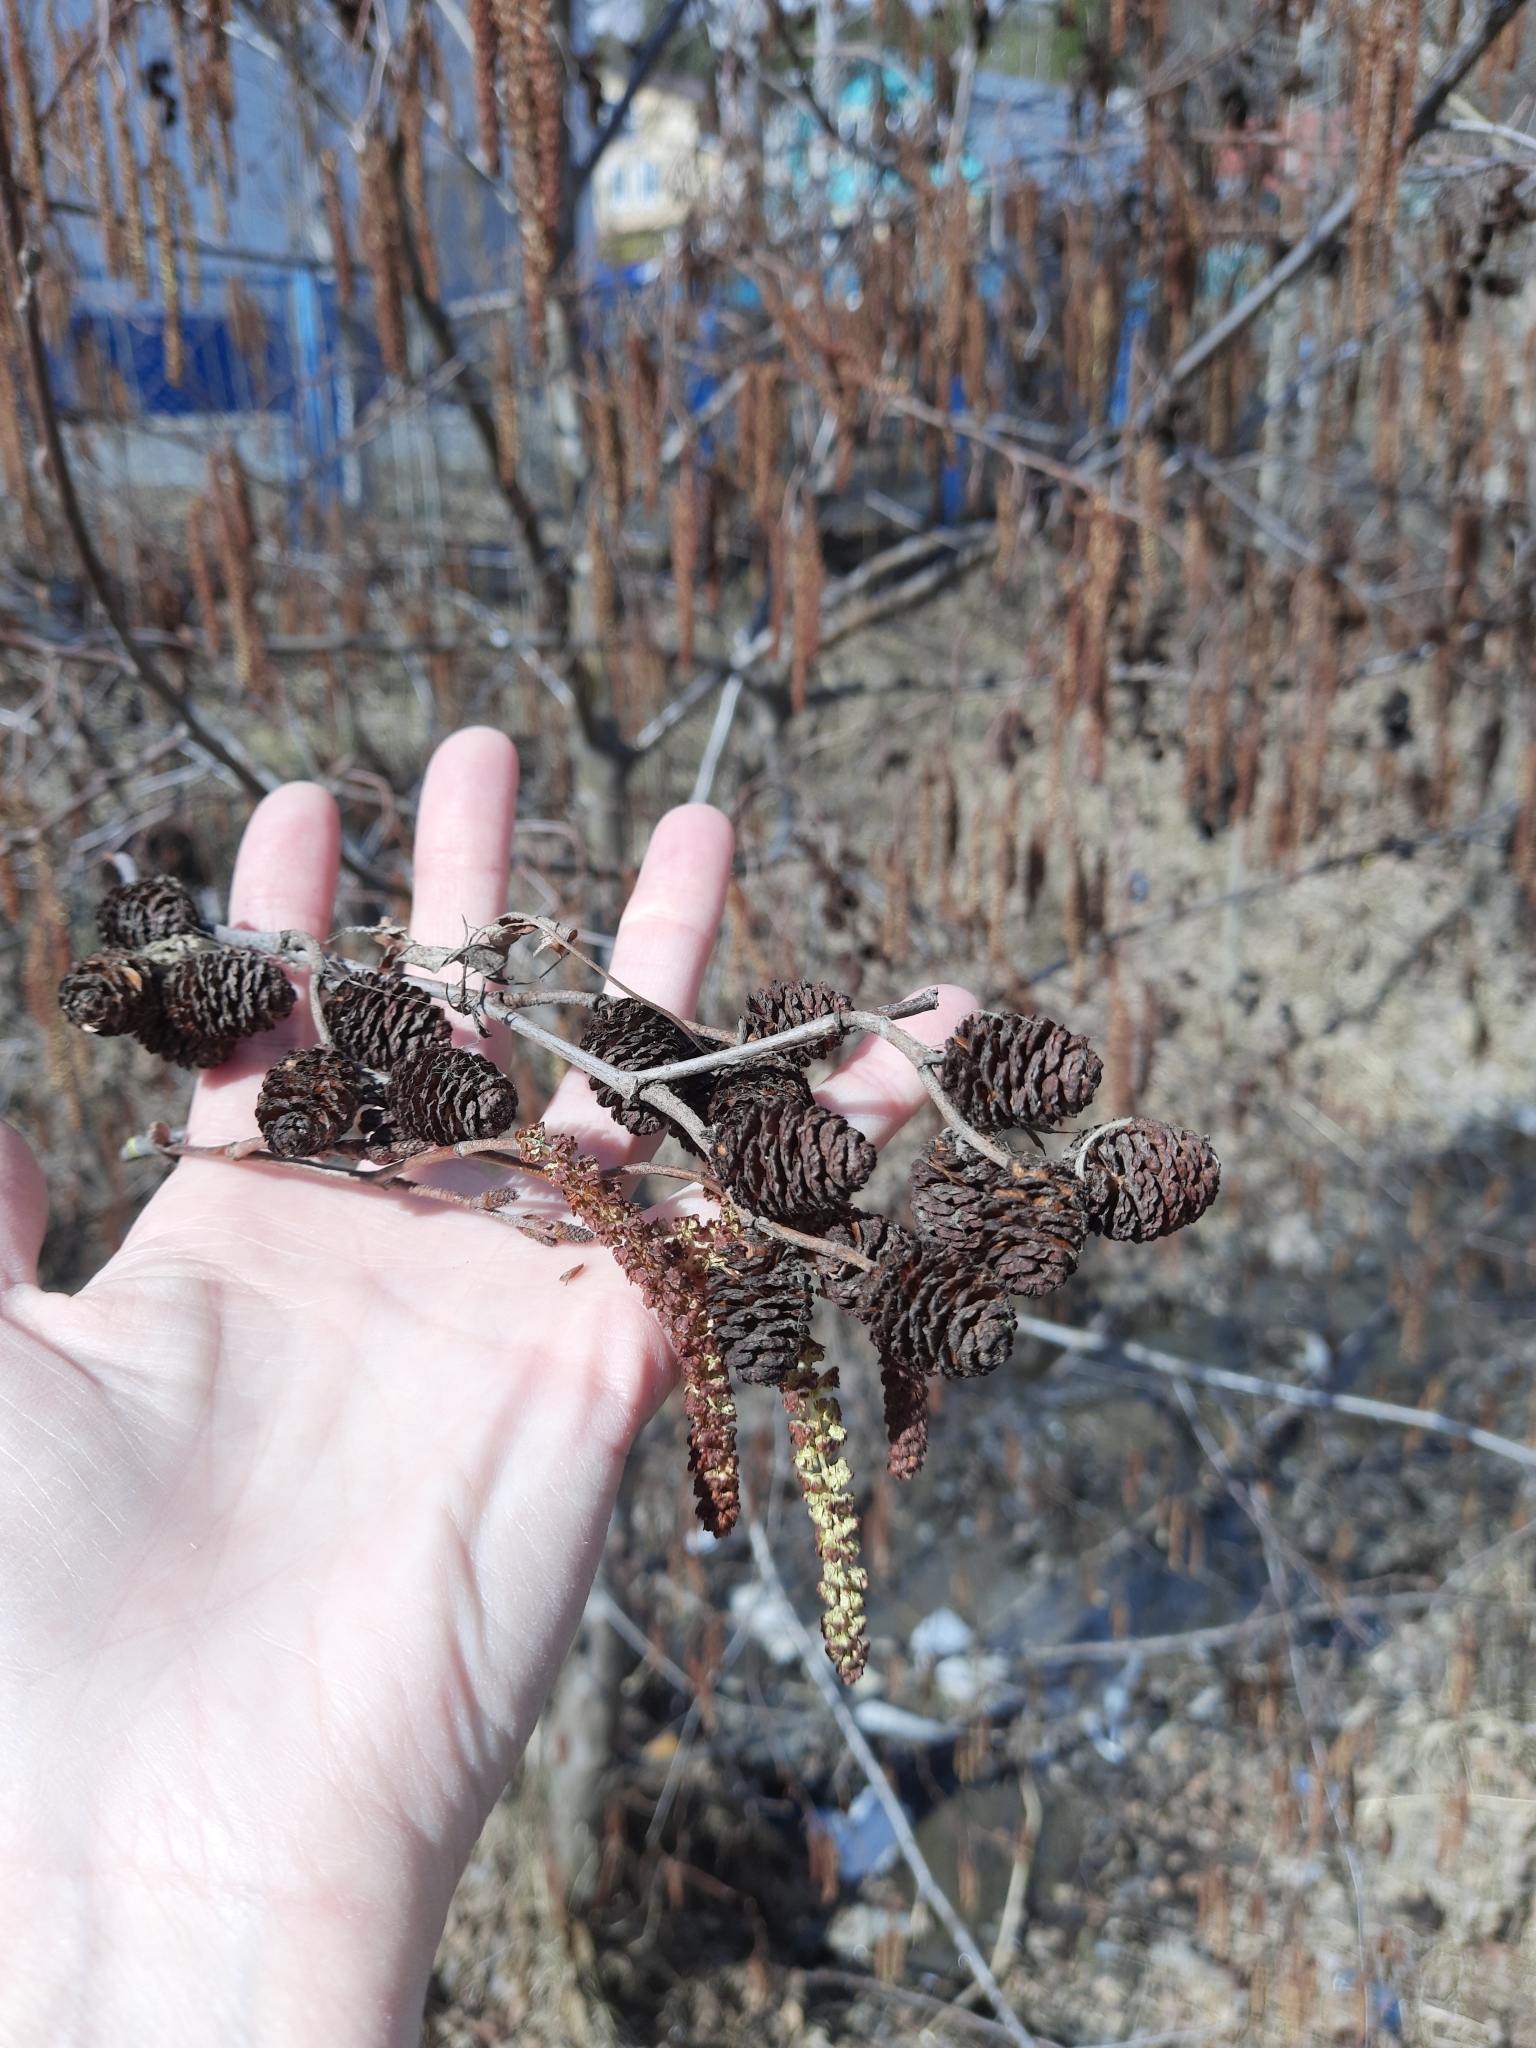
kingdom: Plantae
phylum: Tracheophyta
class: Magnoliopsida
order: Fagales
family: Betulaceae
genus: Alnus
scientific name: Alnus incana
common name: Grey alder
